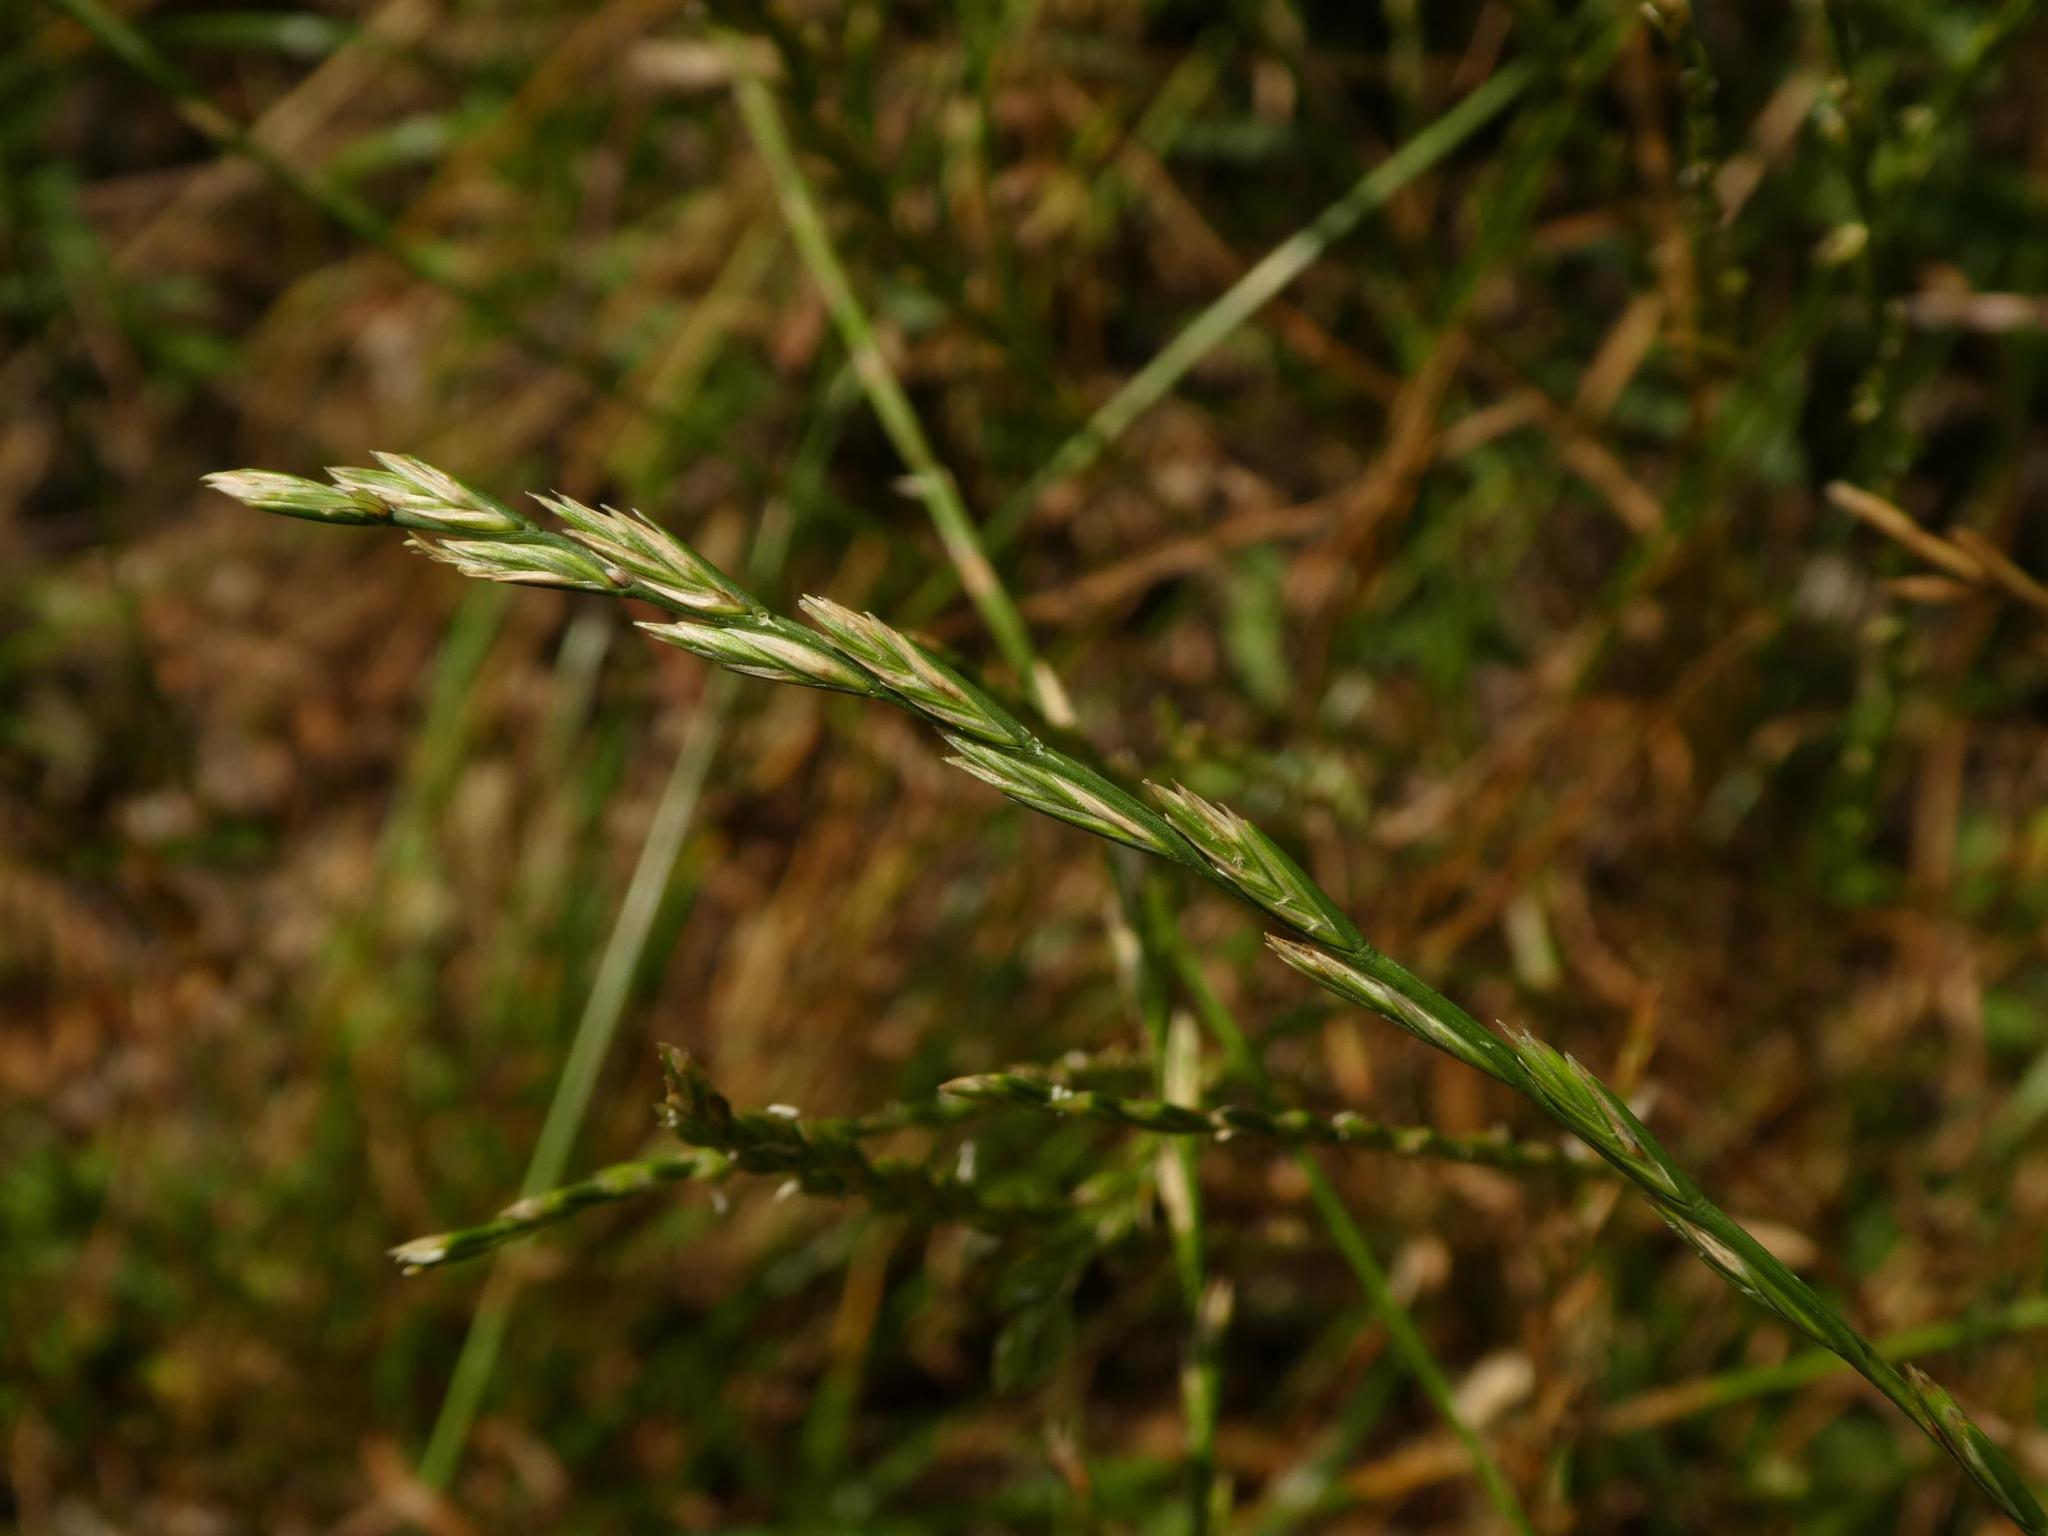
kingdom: Plantae
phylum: Tracheophyta
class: Liliopsida
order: Poales
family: Poaceae
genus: Lolium
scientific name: Lolium perenne
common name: Perennial ryegrass
